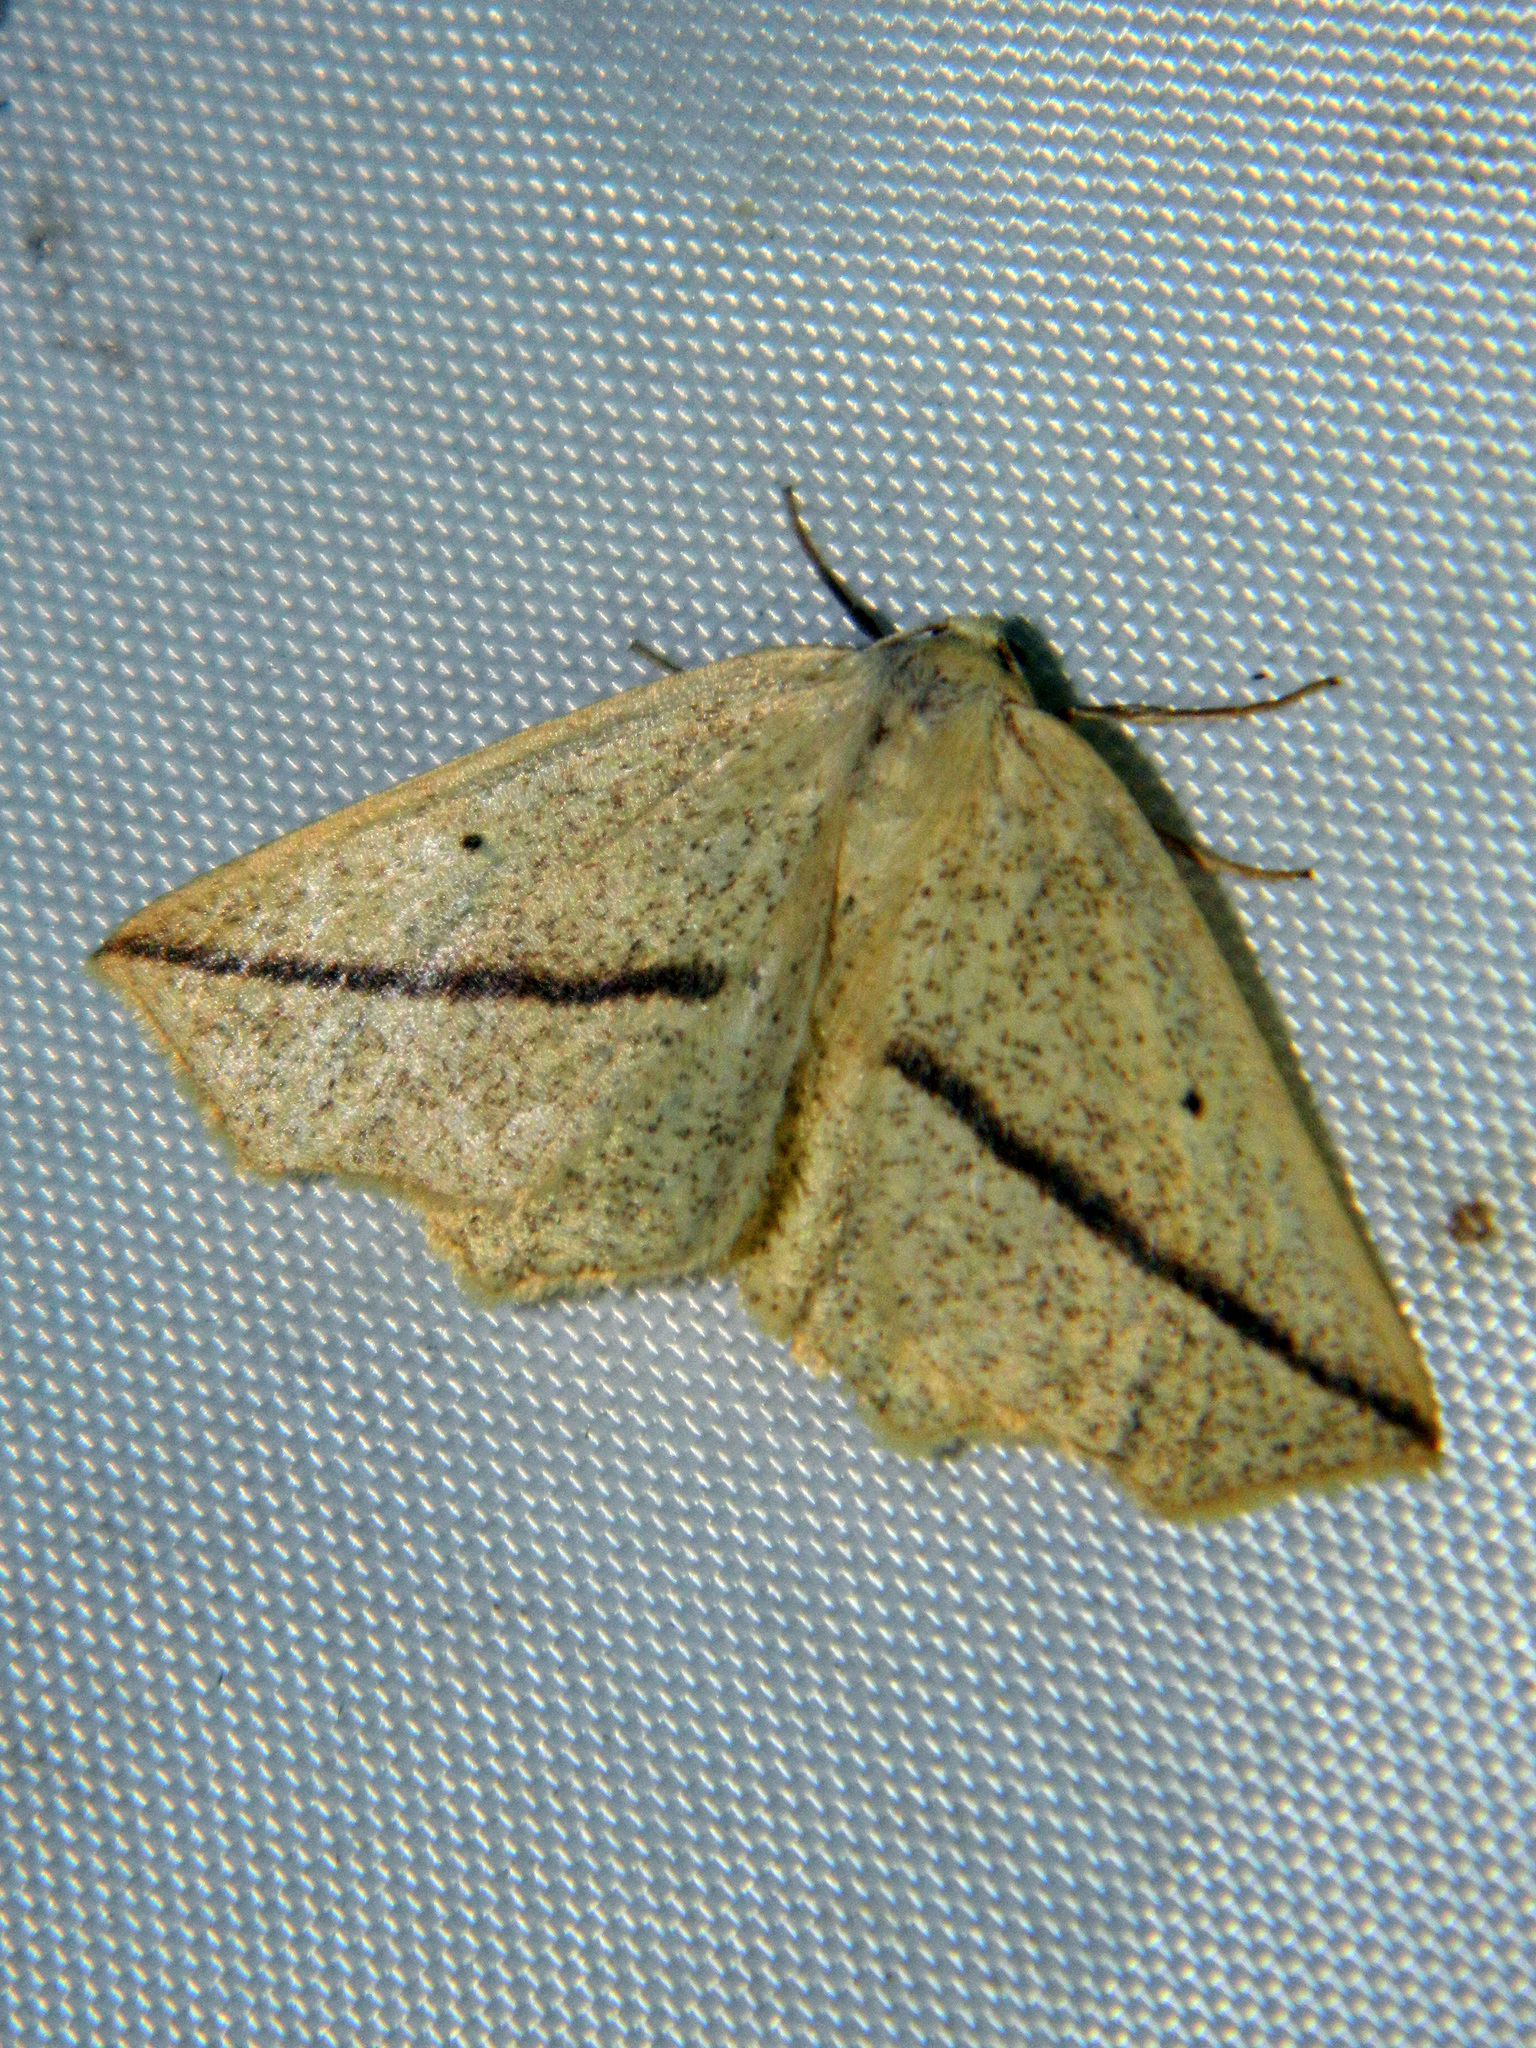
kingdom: Animalia
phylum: Arthropoda
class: Insecta
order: Lepidoptera
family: Geometridae
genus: Tetracis
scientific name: Tetracis crocallata
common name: Yellow slant-line
